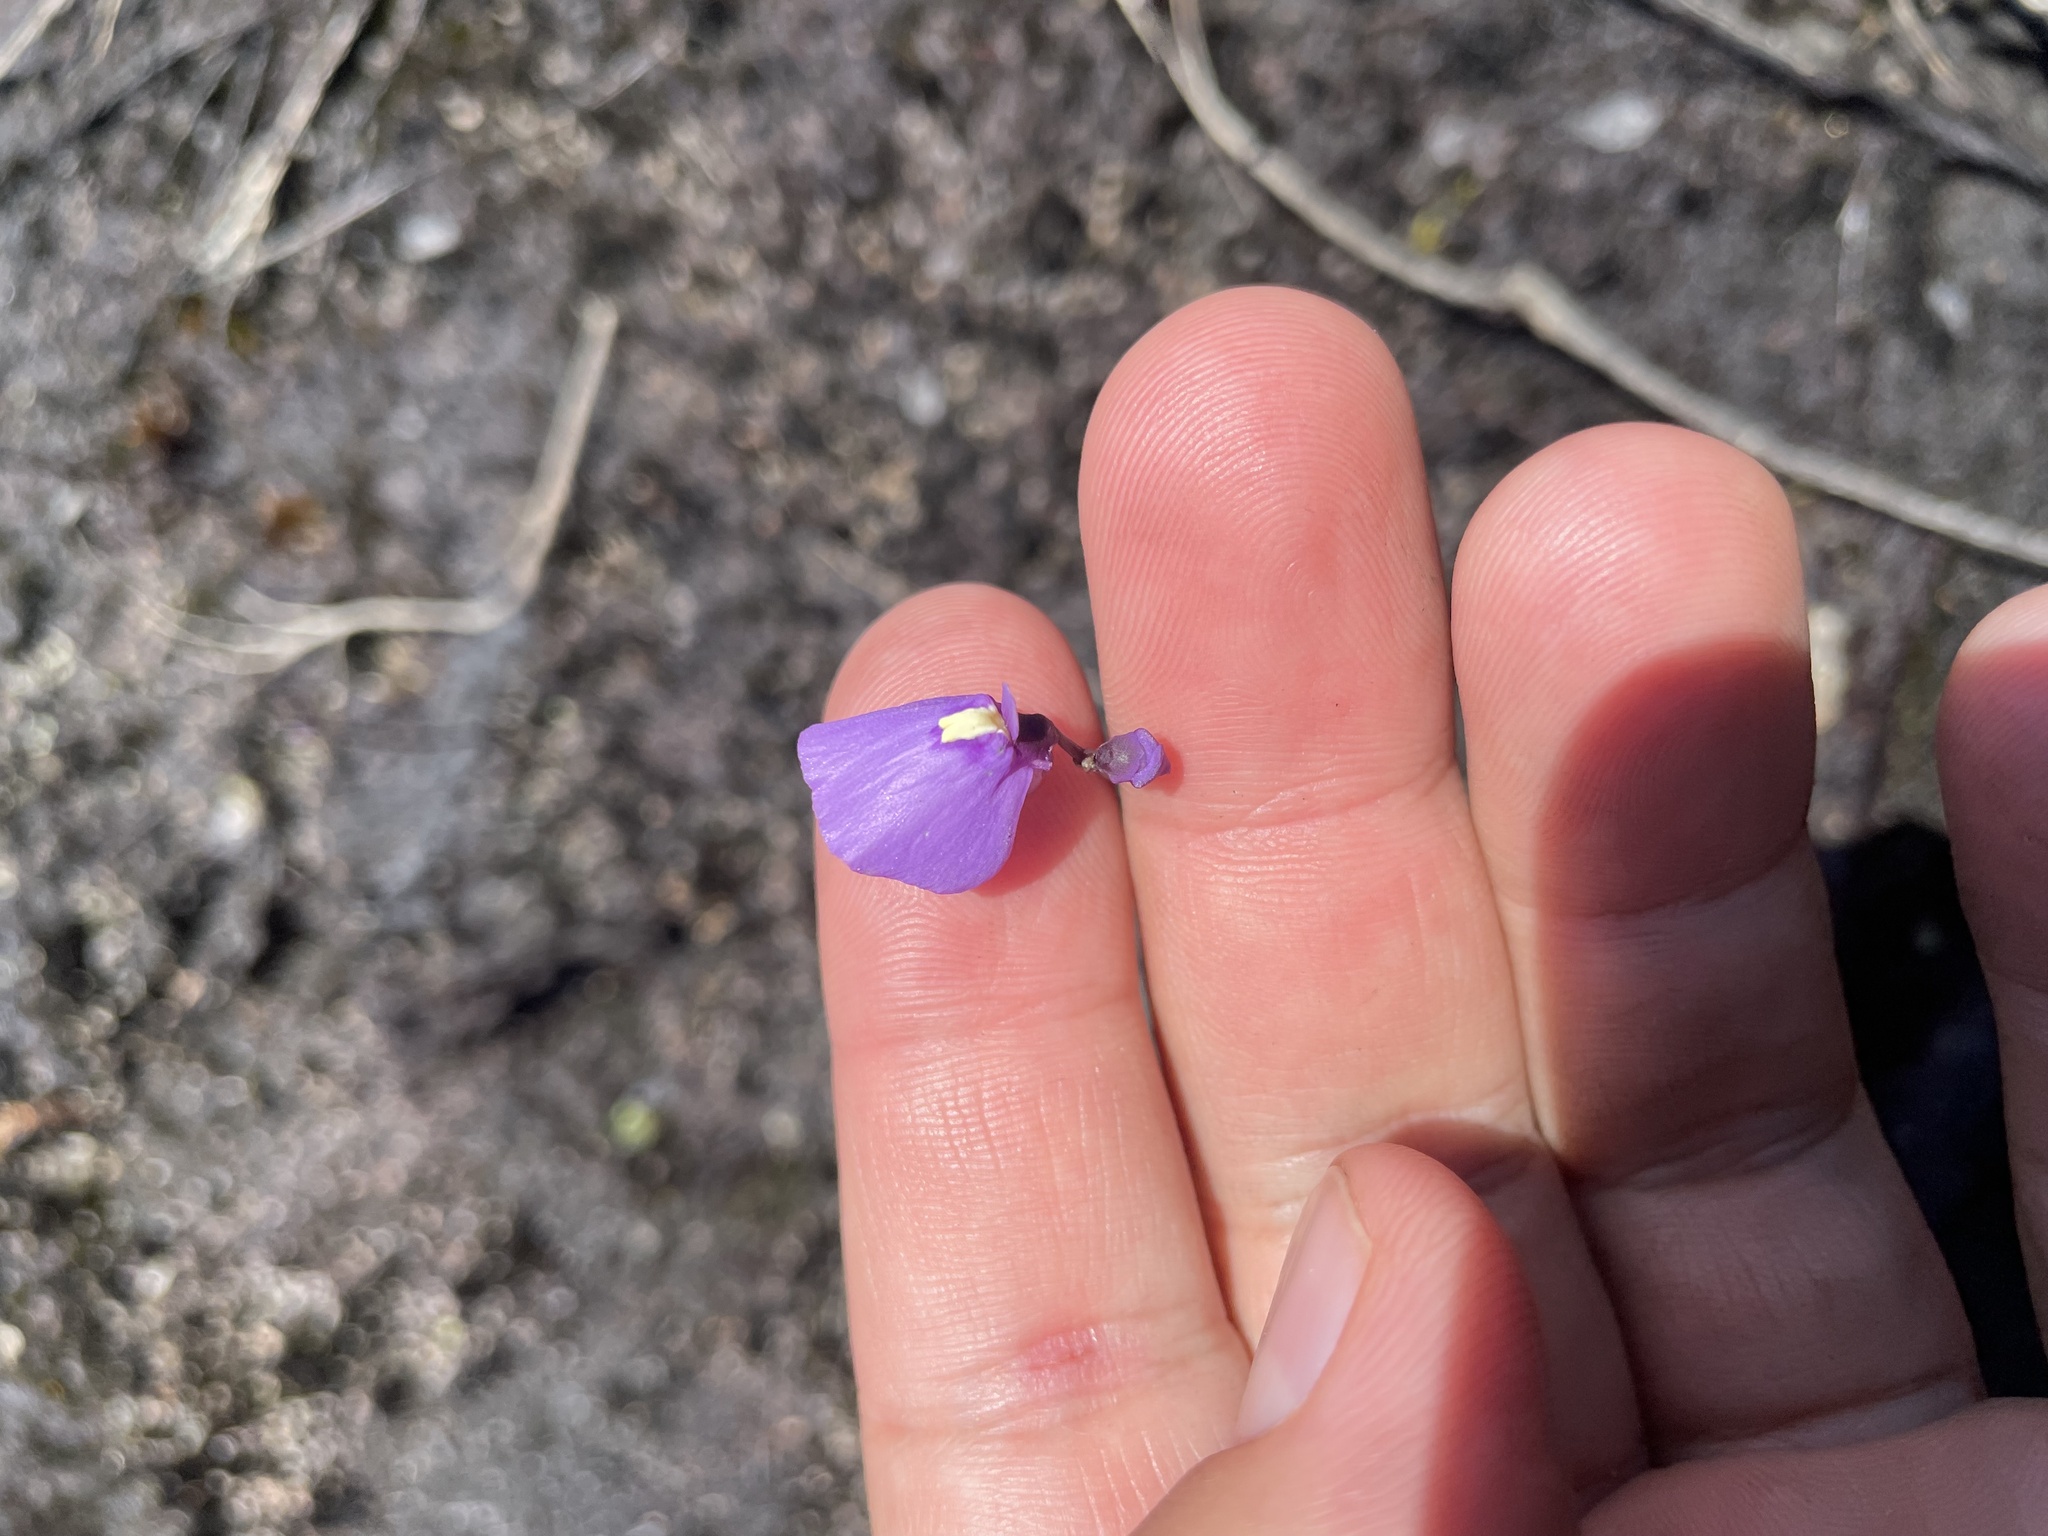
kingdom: Plantae
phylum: Tracheophyta
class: Magnoliopsida
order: Lamiales
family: Lentibulariaceae
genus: Utricularia
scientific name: Utricularia dichotoma
